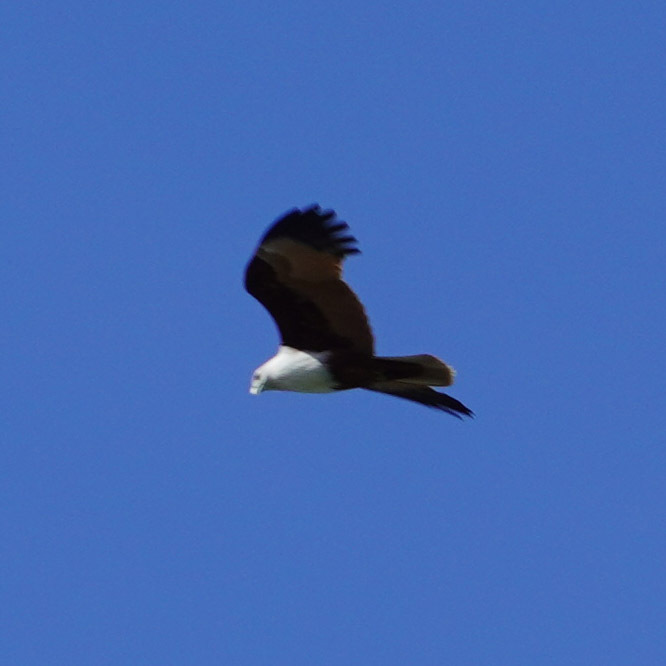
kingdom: Animalia
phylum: Chordata
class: Aves
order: Accipitriformes
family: Accipitridae
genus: Haliastur
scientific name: Haliastur indus
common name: Brahminy kite
